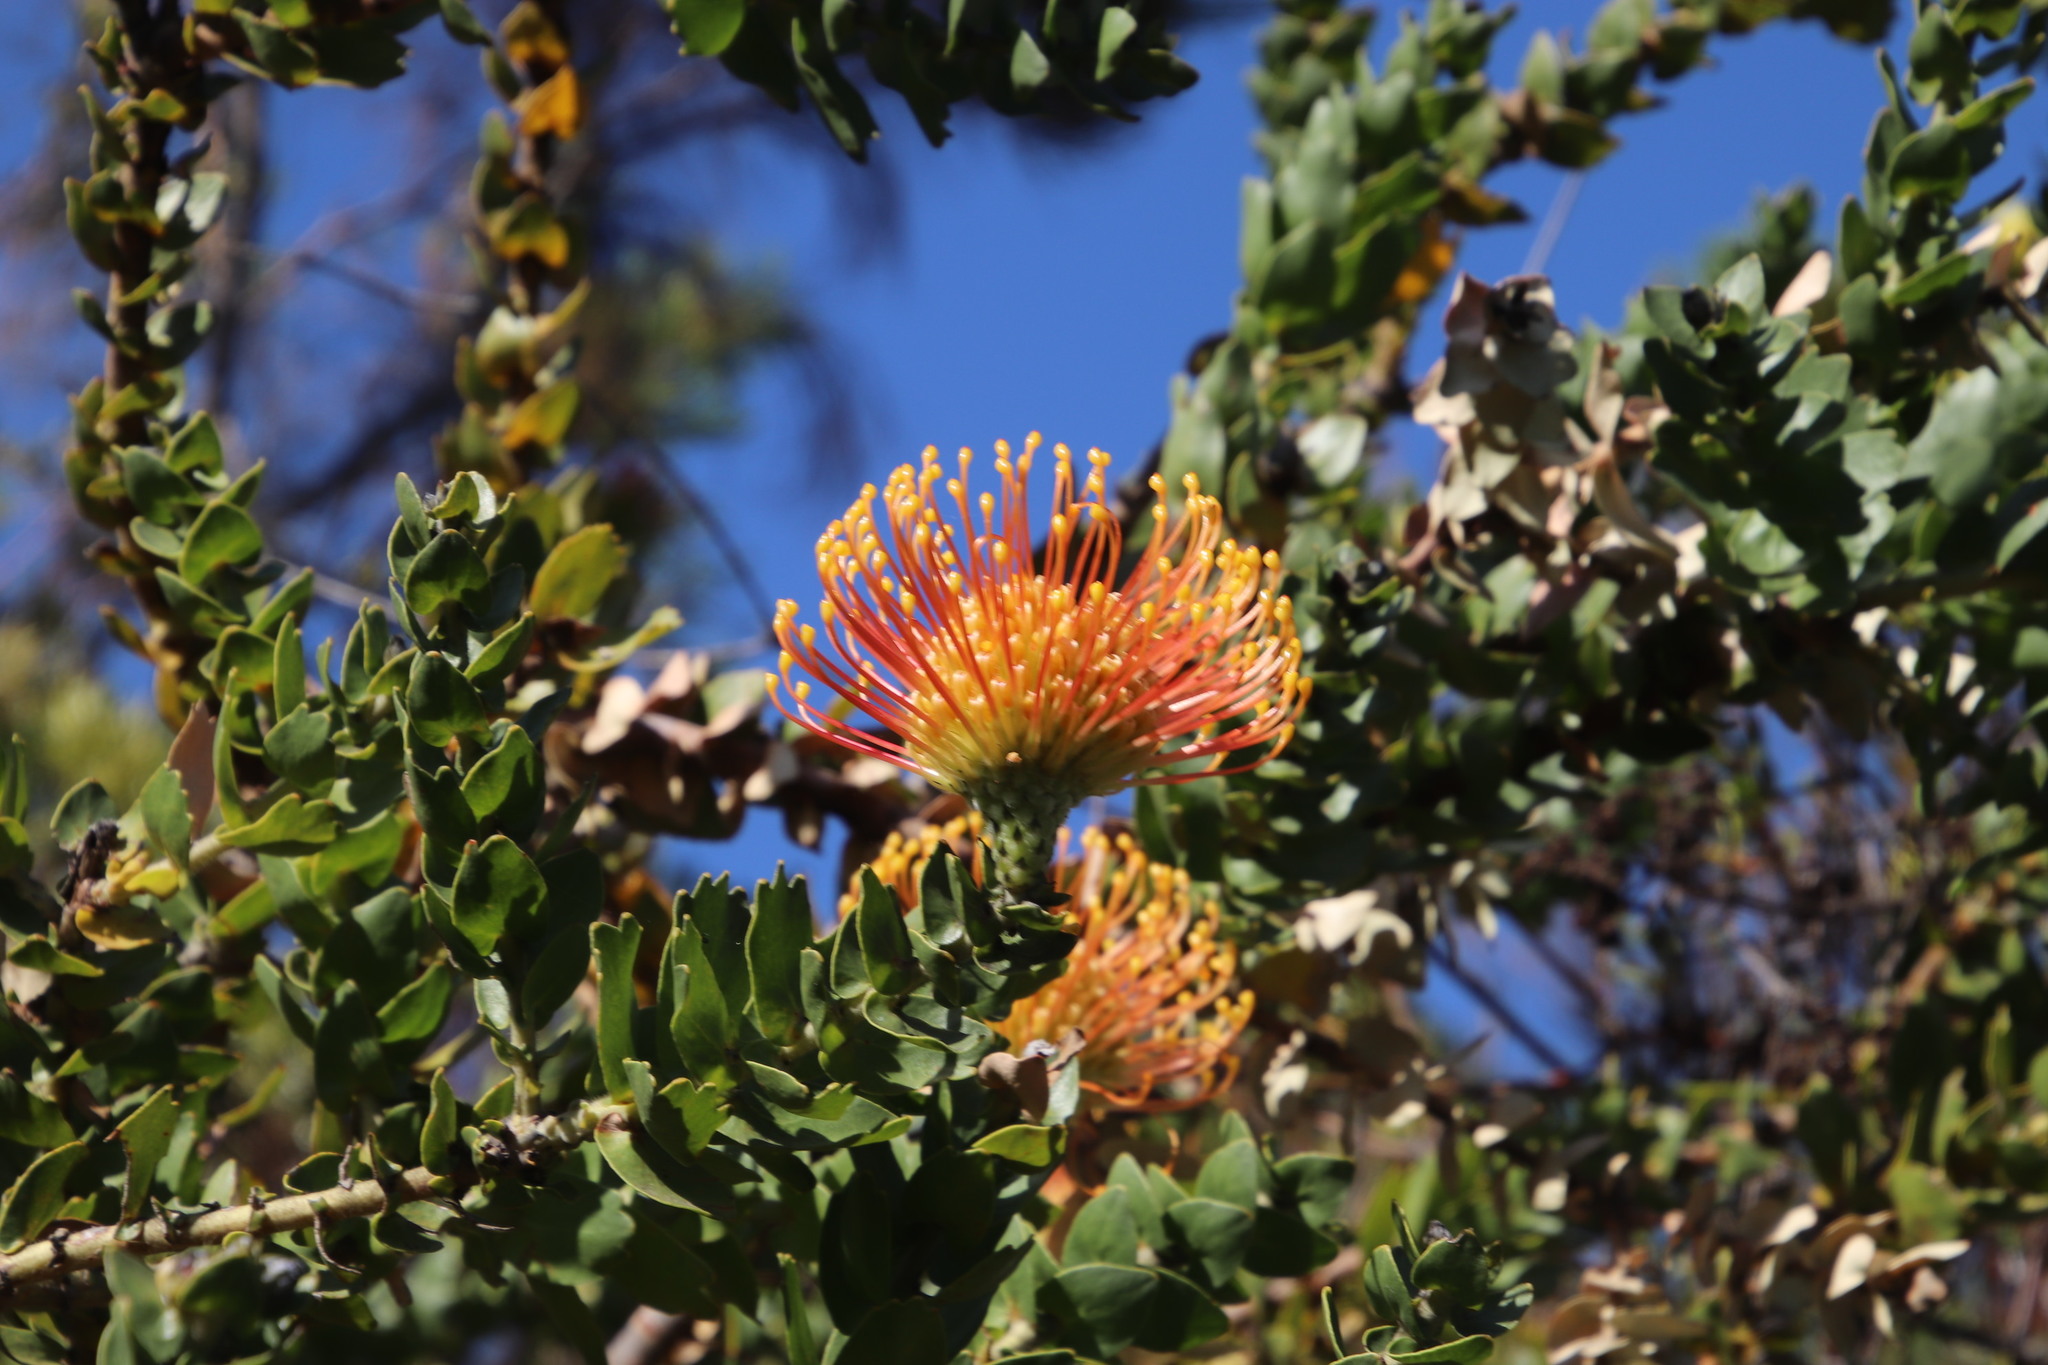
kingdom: Plantae
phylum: Tracheophyta
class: Magnoliopsida
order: Proteales
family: Proteaceae
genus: Leucospermum
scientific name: Leucospermum
